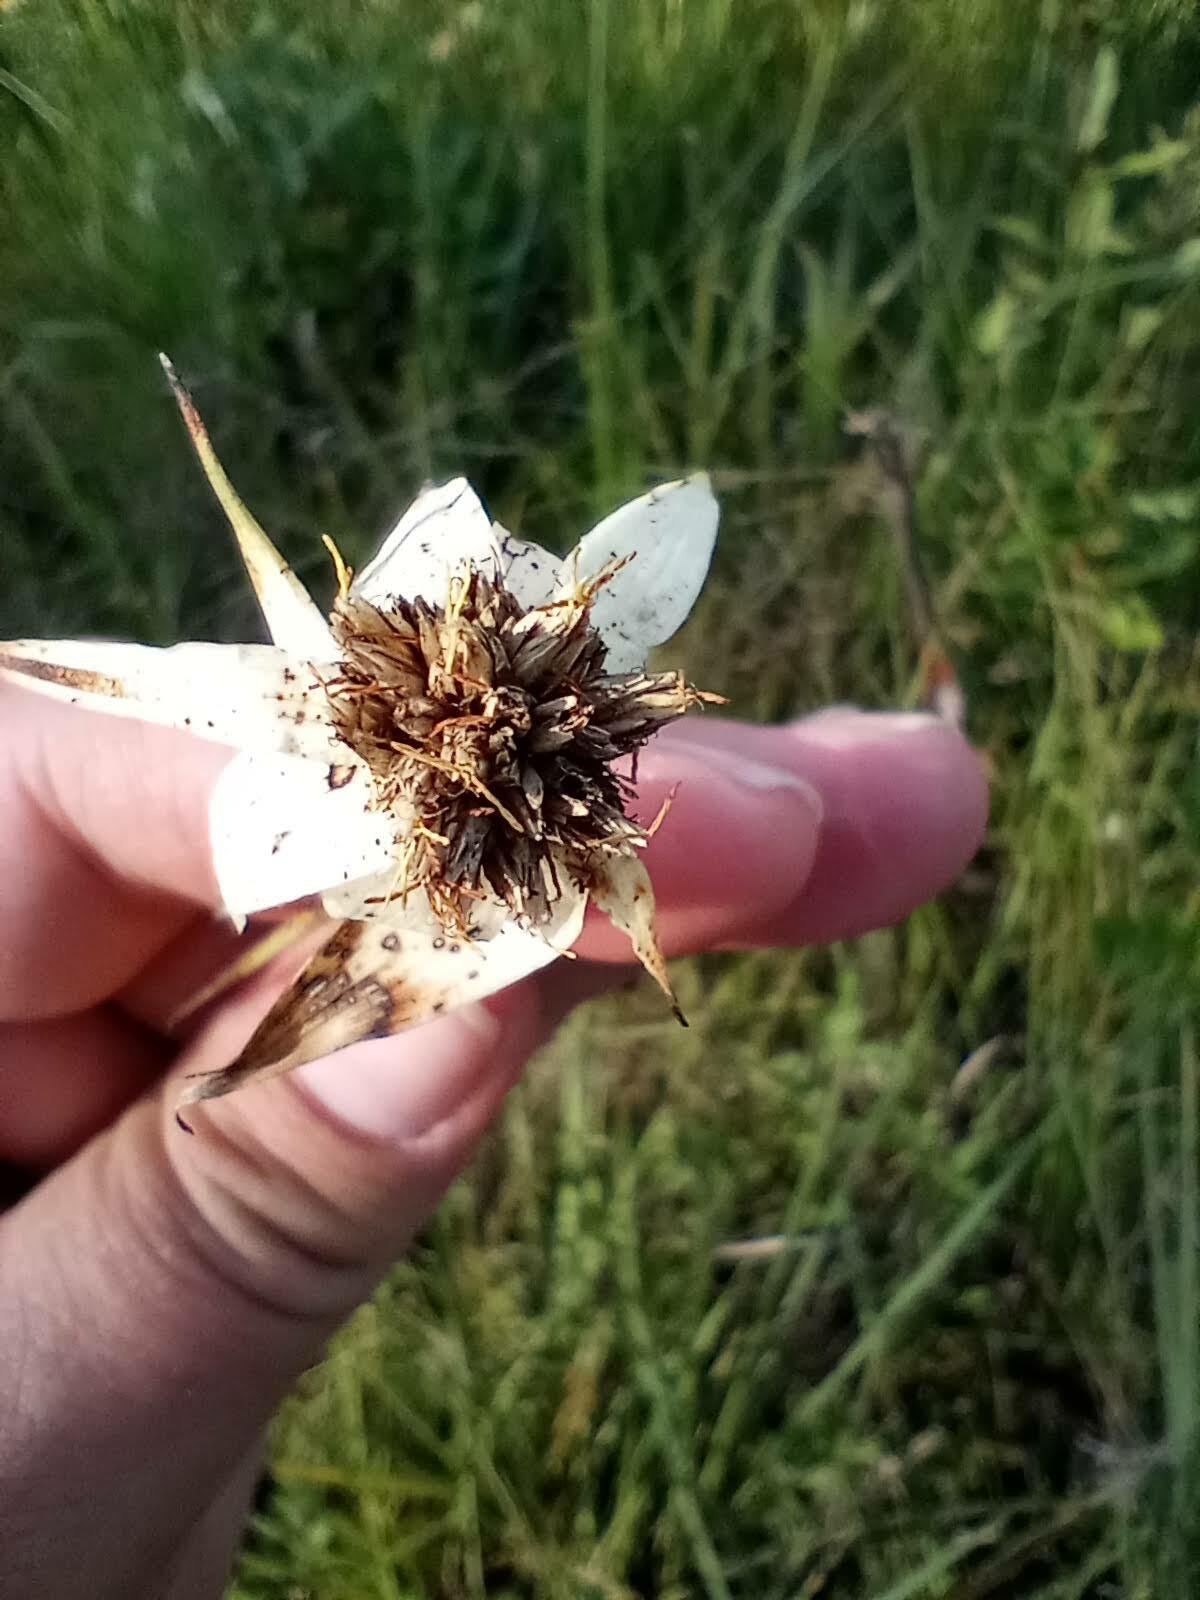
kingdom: Plantae
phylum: Tracheophyta
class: Liliopsida
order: Poales
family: Cyperaceae
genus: Rhynchospora
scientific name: Rhynchospora latifolia
